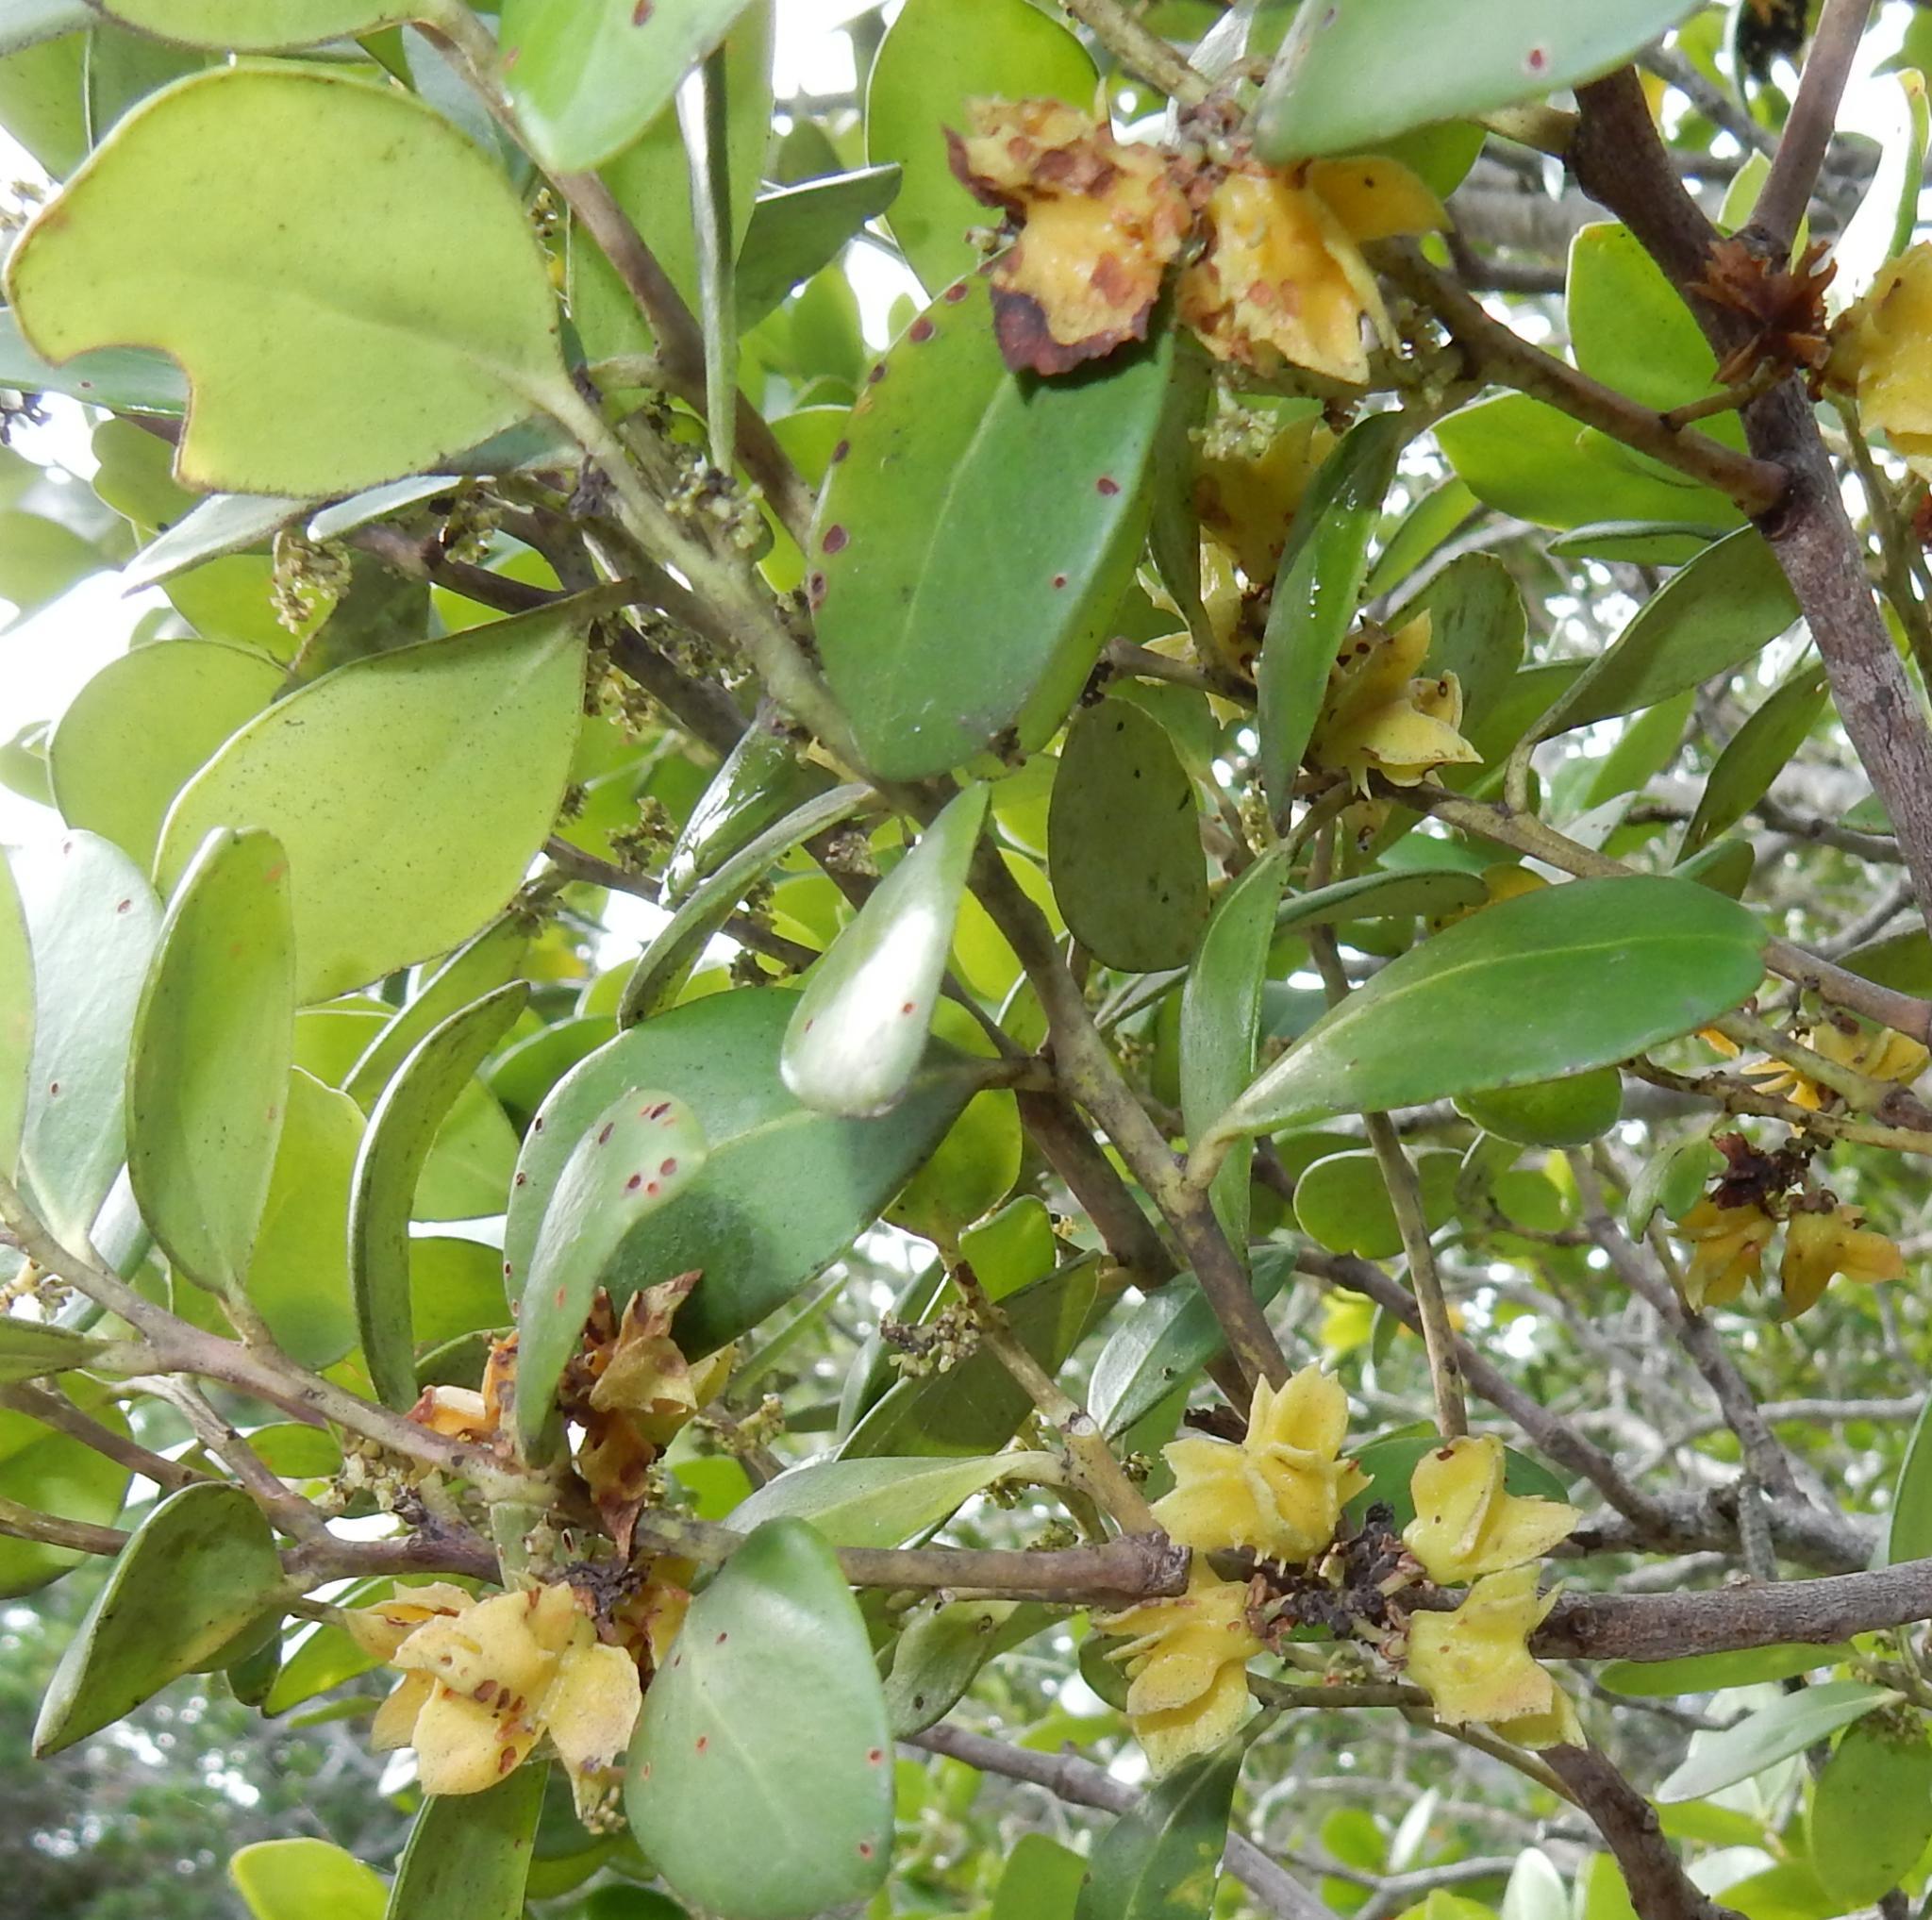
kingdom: Plantae
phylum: Tracheophyta
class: Magnoliopsida
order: Celastrales
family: Celastraceae
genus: Pterocelastrus
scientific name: Pterocelastrus tricuspidatus
